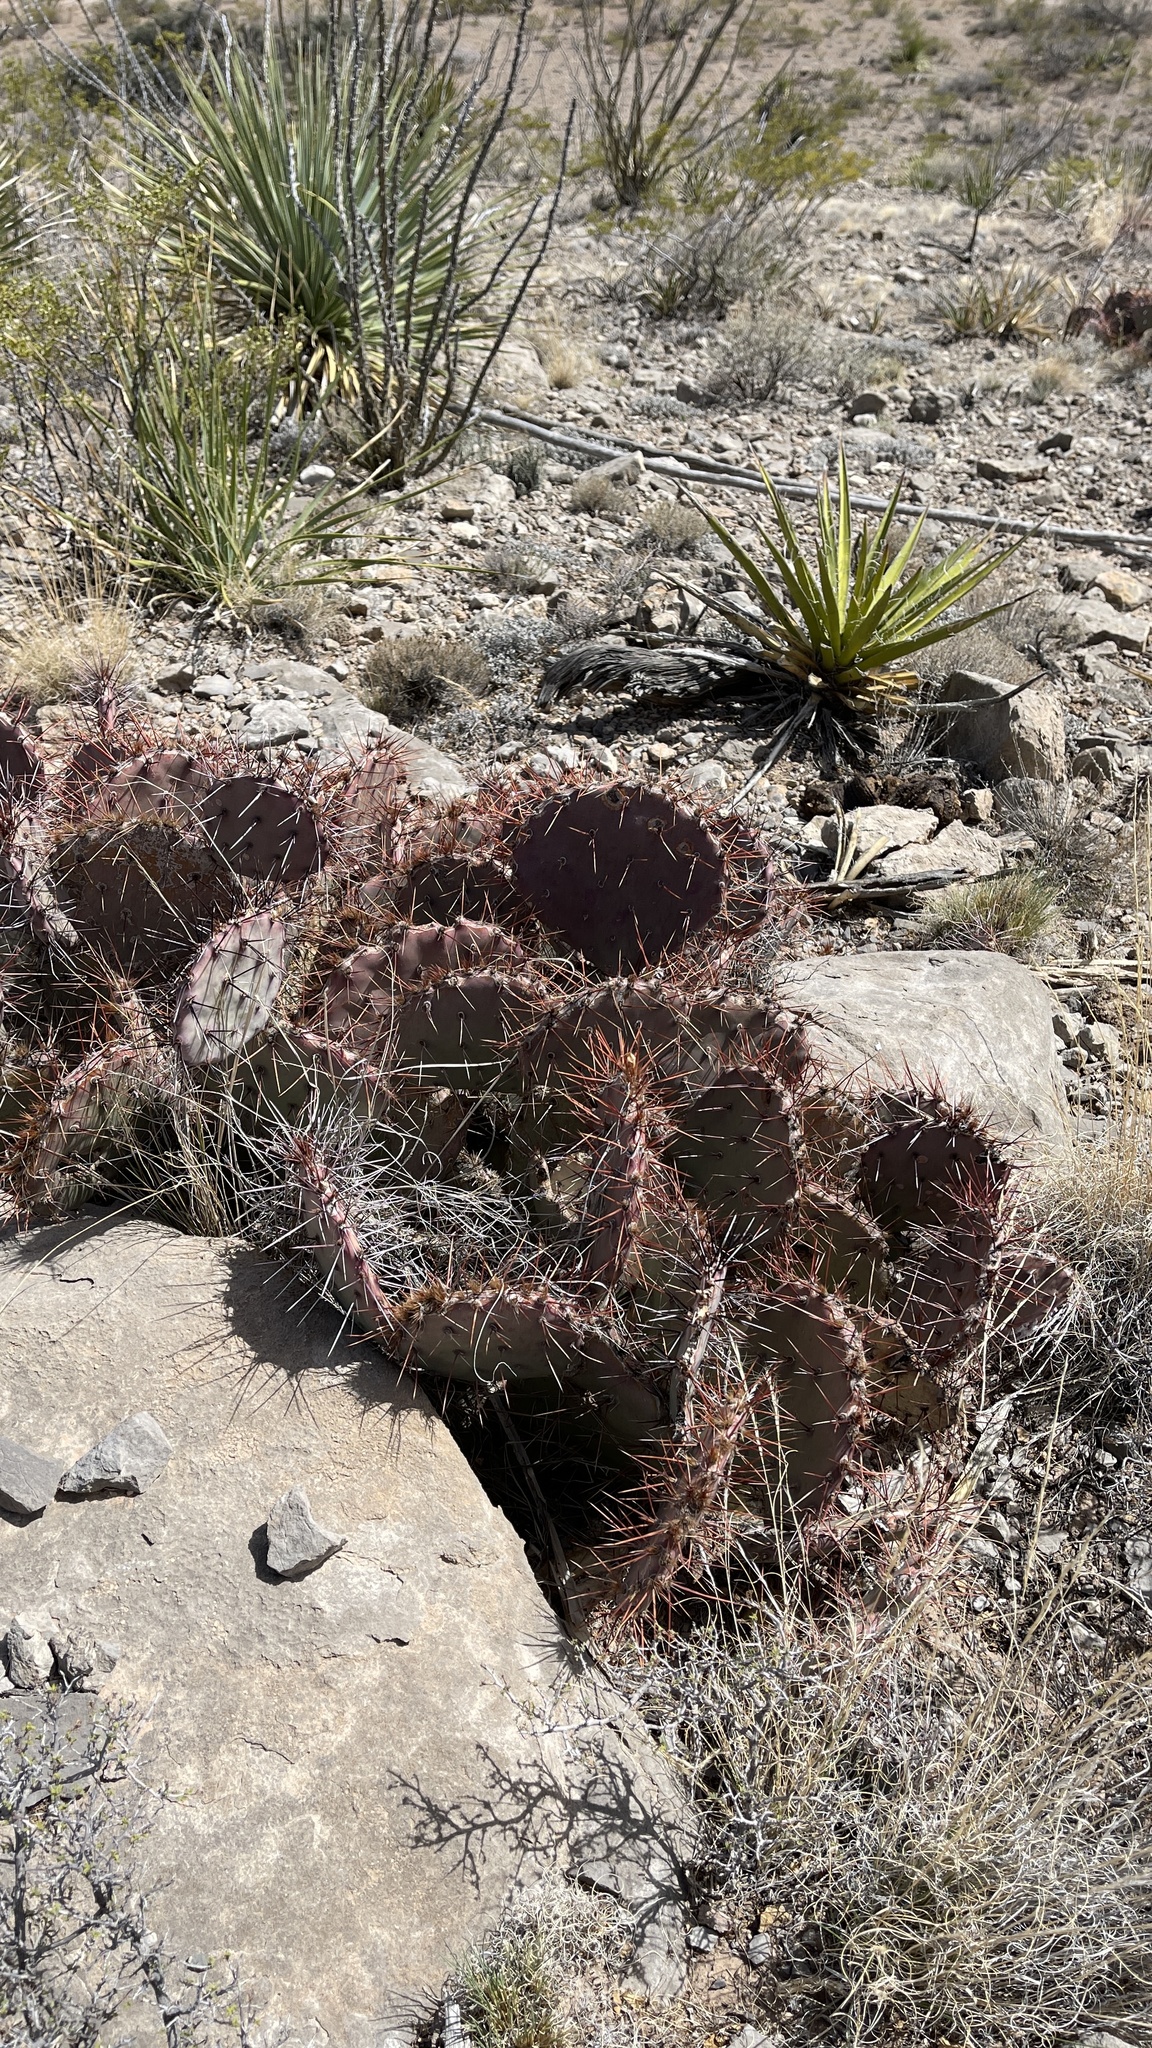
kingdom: Plantae
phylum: Tracheophyta
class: Magnoliopsida
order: Caryophyllales
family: Cactaceae
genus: Opuntia
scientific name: Opuntia macrocentra
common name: Purple prickly-pear
